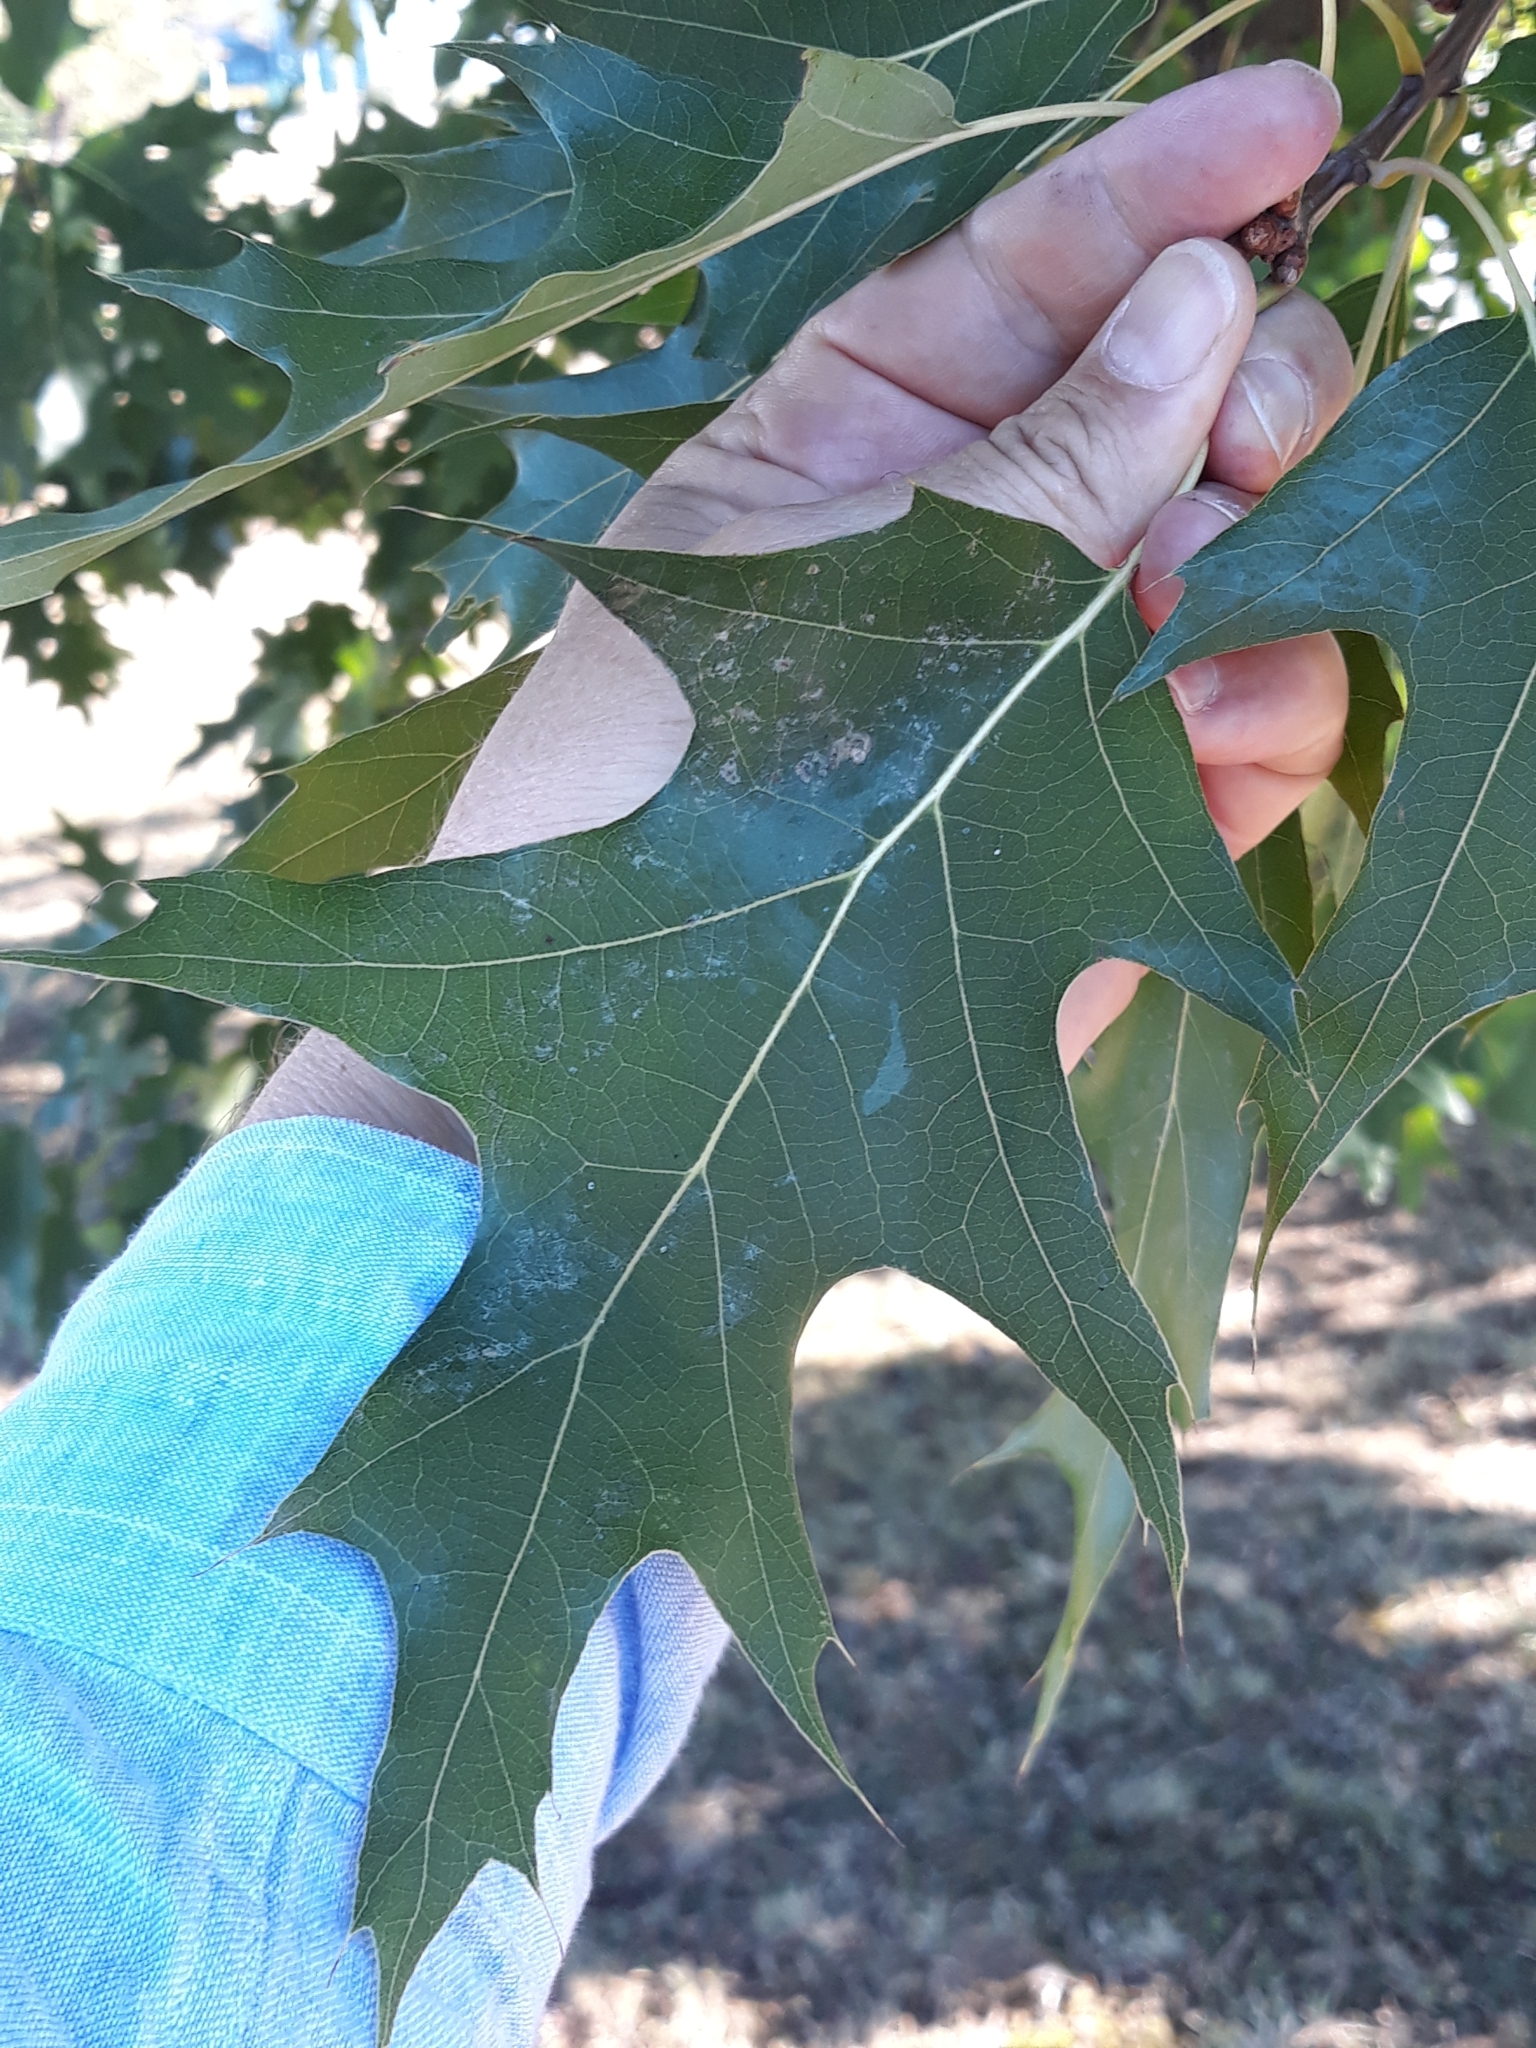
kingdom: Plantae
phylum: Tracheophyta
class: Magnoliopsida
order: Fagales
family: Fagaceae
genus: Quercus
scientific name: Quercus rubra
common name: Red oak
